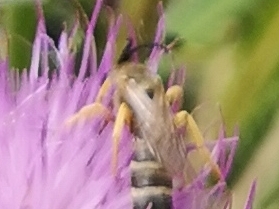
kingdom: Animalia
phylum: Arthropoda
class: Insecta
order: Hymenoptera
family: Halictidae
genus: Halictus
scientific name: Halictus scabiosae
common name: Great banded furrow bee
